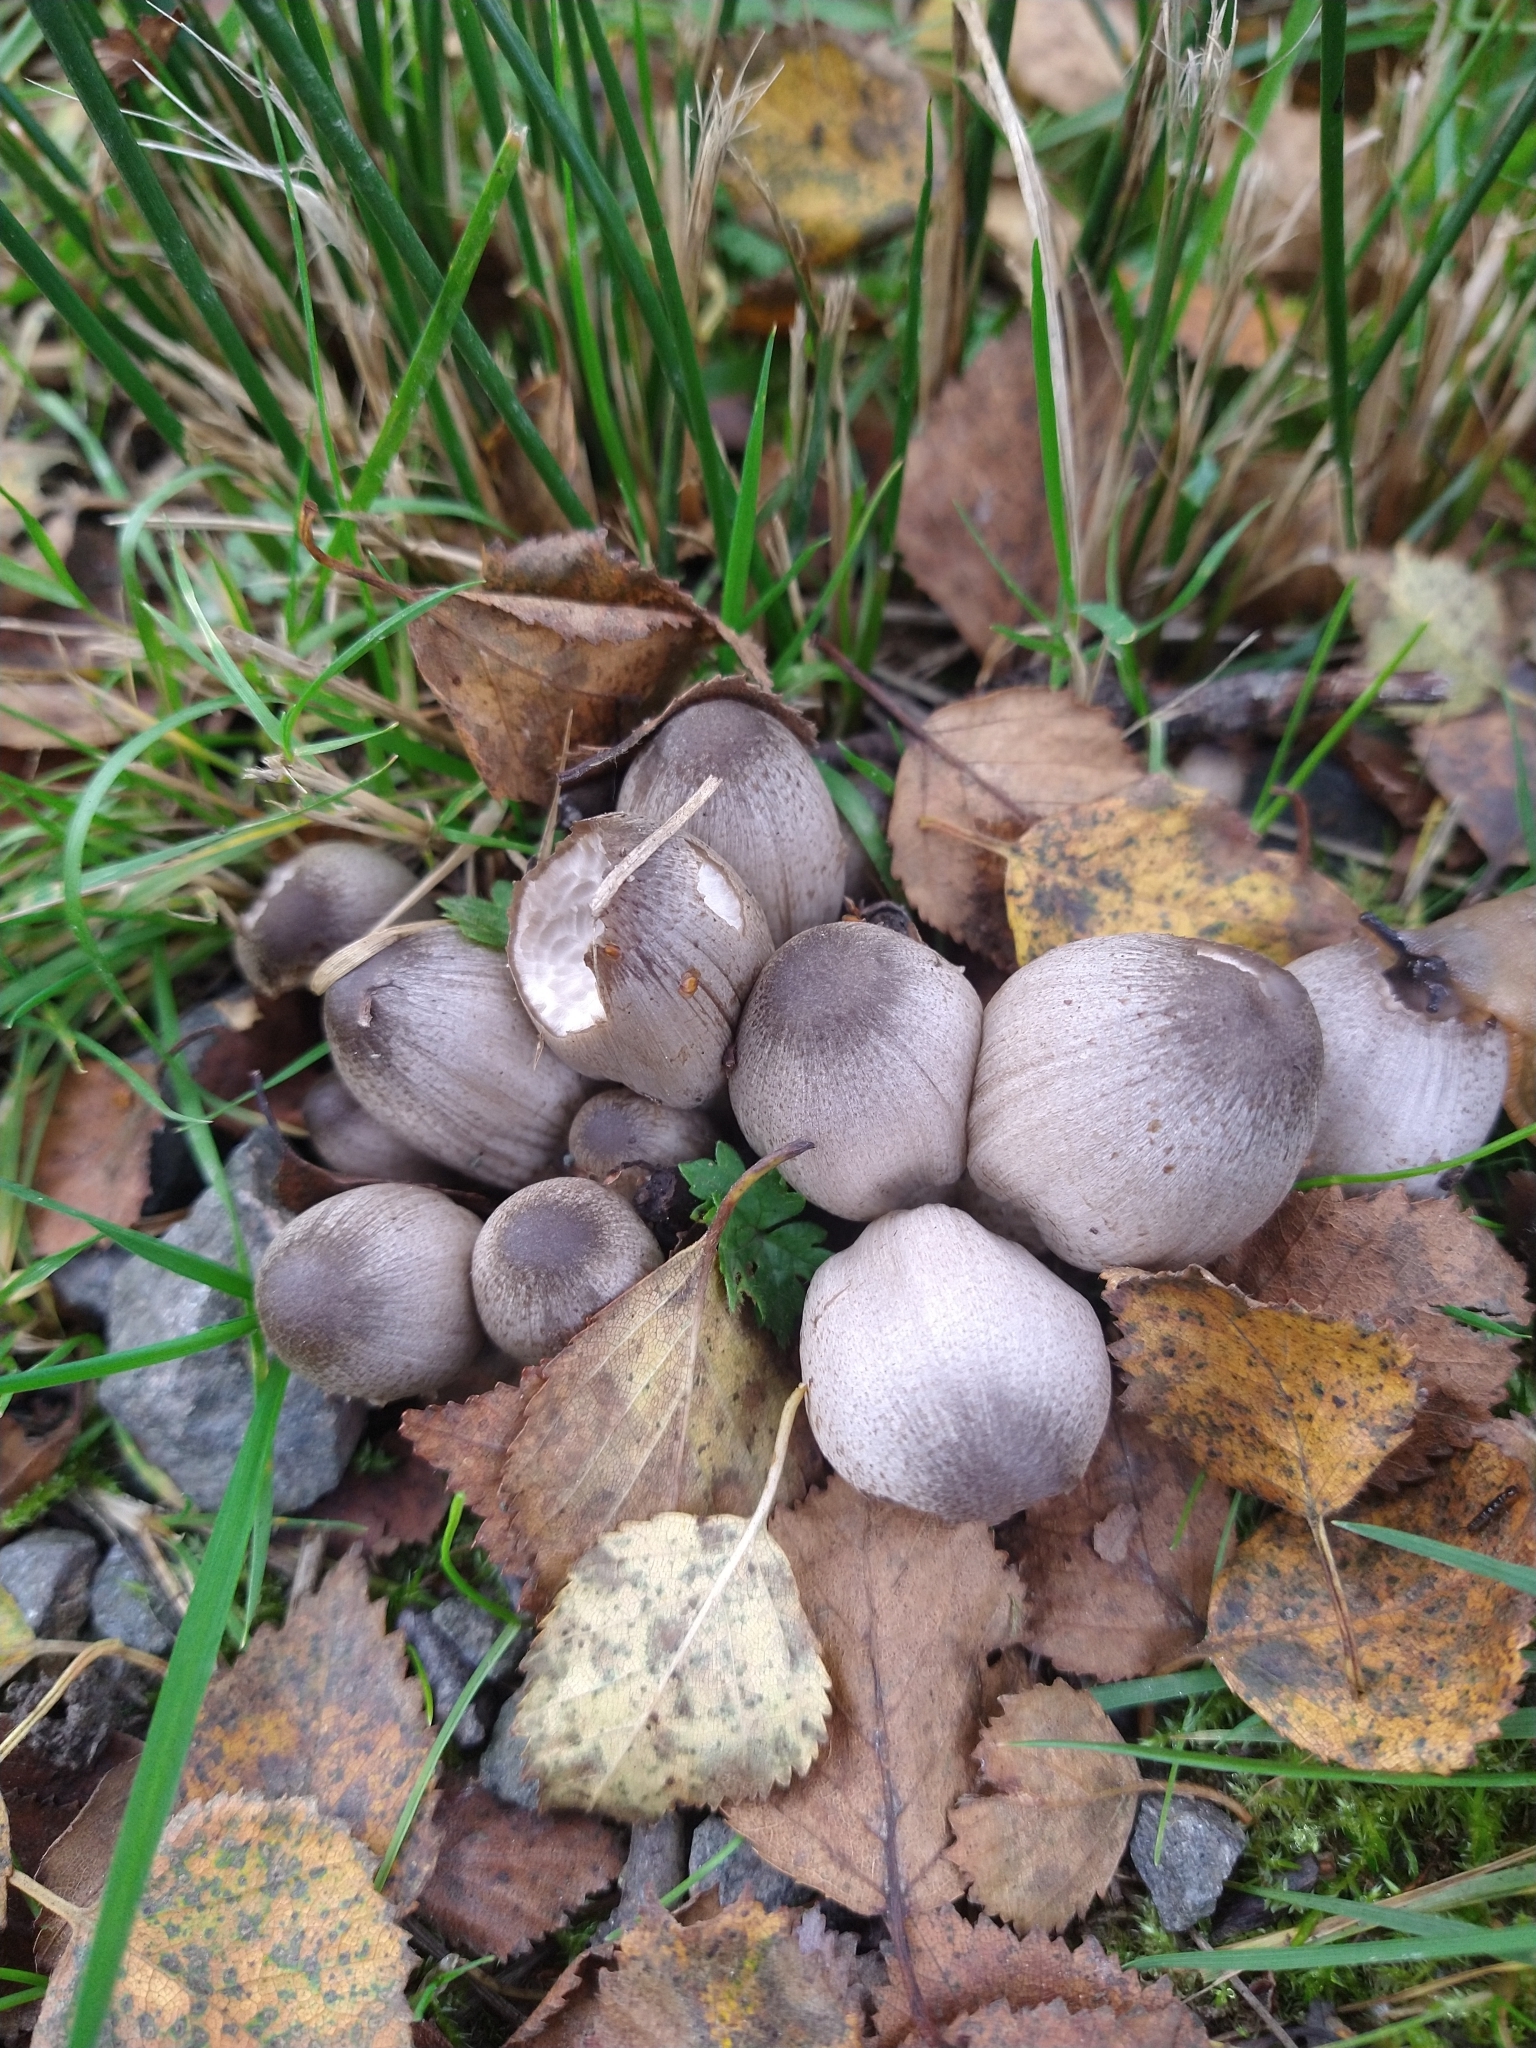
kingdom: Fungi
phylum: Basidiomycota
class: Agaricomycetes
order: Agaricales
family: Psathyrellaceae
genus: Coprinopsis
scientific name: Coprinopsis atramentaria
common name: Common ink-cap
